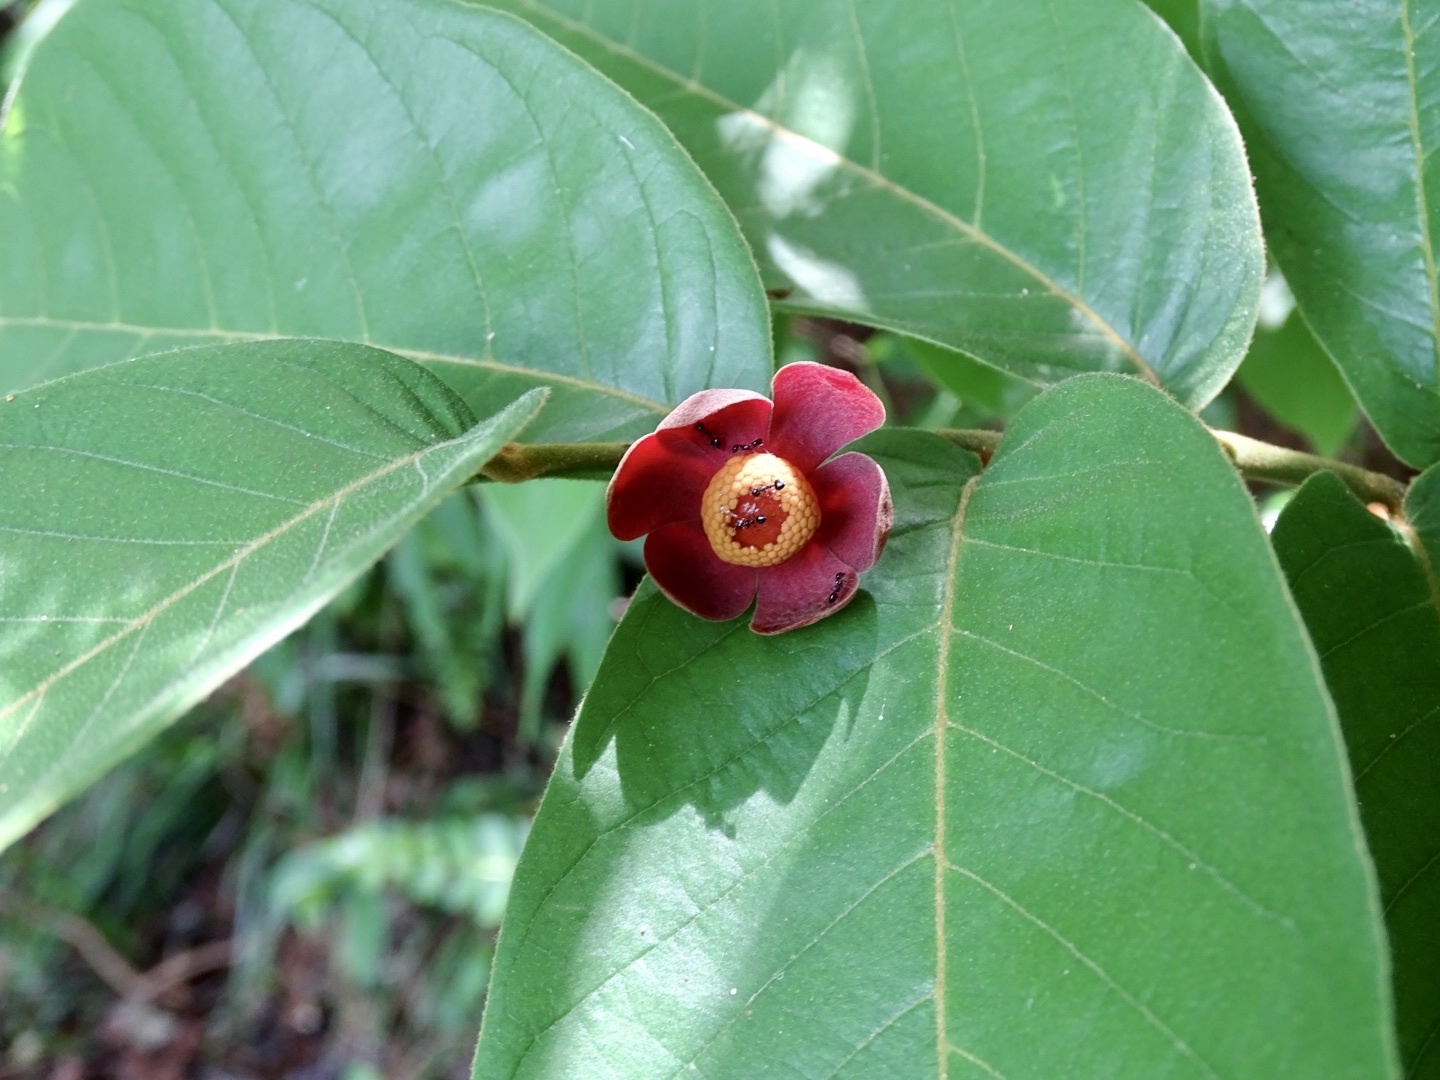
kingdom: Plantae
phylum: Tracheophyta
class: Magnoliopsida
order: Magnoliales
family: Annonaceae
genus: Uvaria
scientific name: Uvaria littoralis
